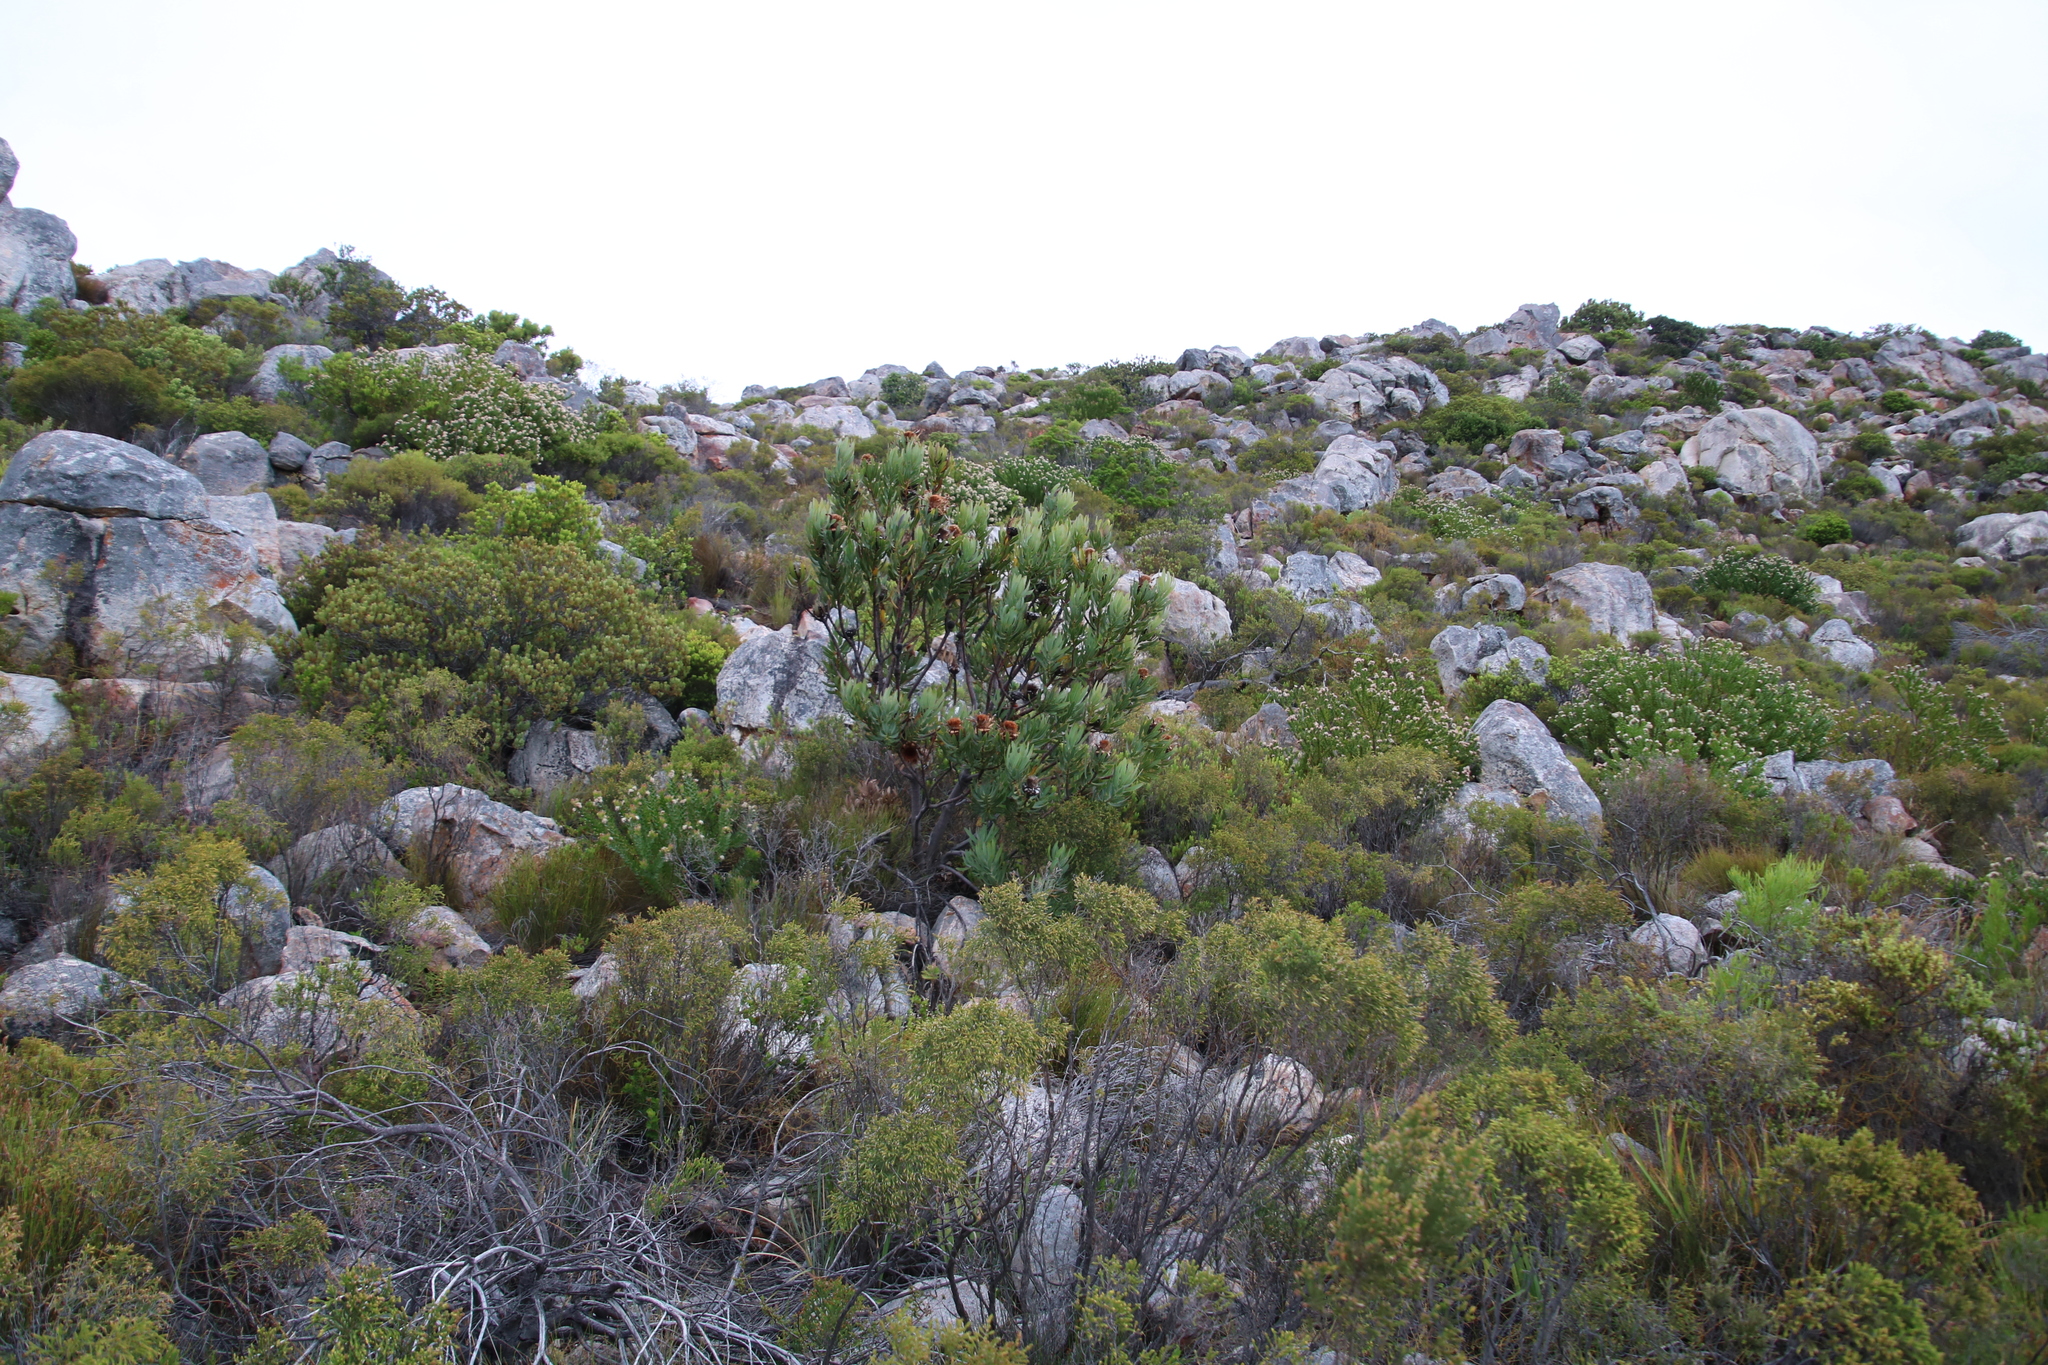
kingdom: Plantae
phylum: Tracheophyta
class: Magnoliopsida
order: Proteales
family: Proteaceae
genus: Protea
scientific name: Protea neriifolia
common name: Blue sugarbush
